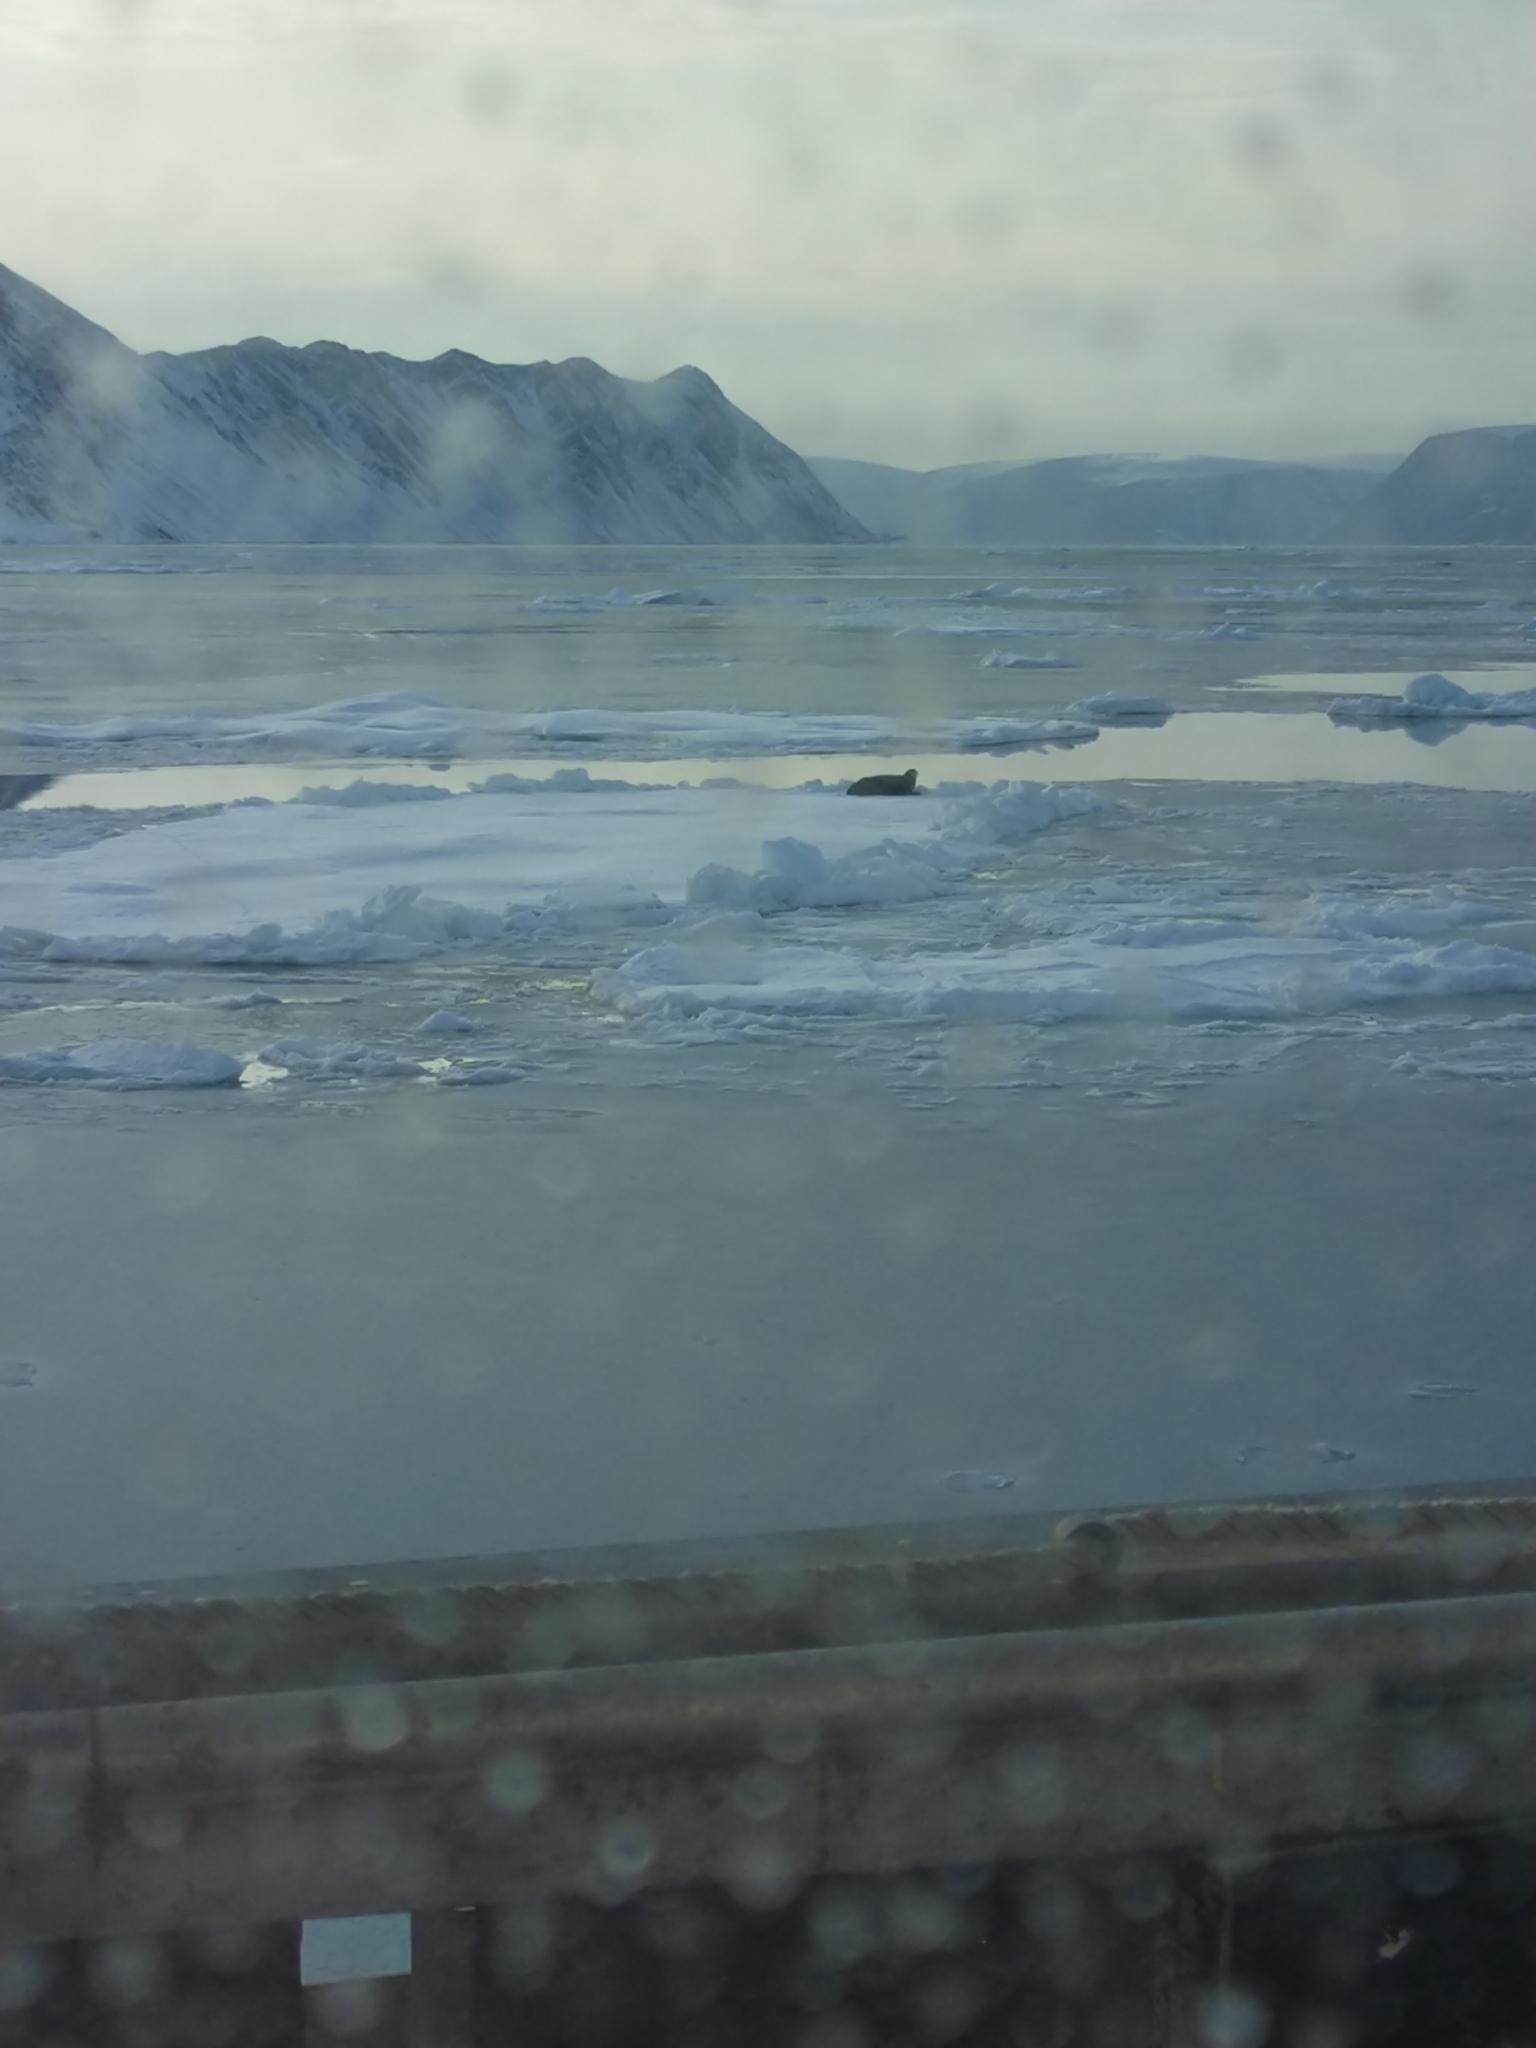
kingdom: Animalia
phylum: Chordata
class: Mammalia
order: Carnivora
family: Phocidae
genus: Erignathus
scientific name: Erignathus barbatus
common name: Bearded seal
